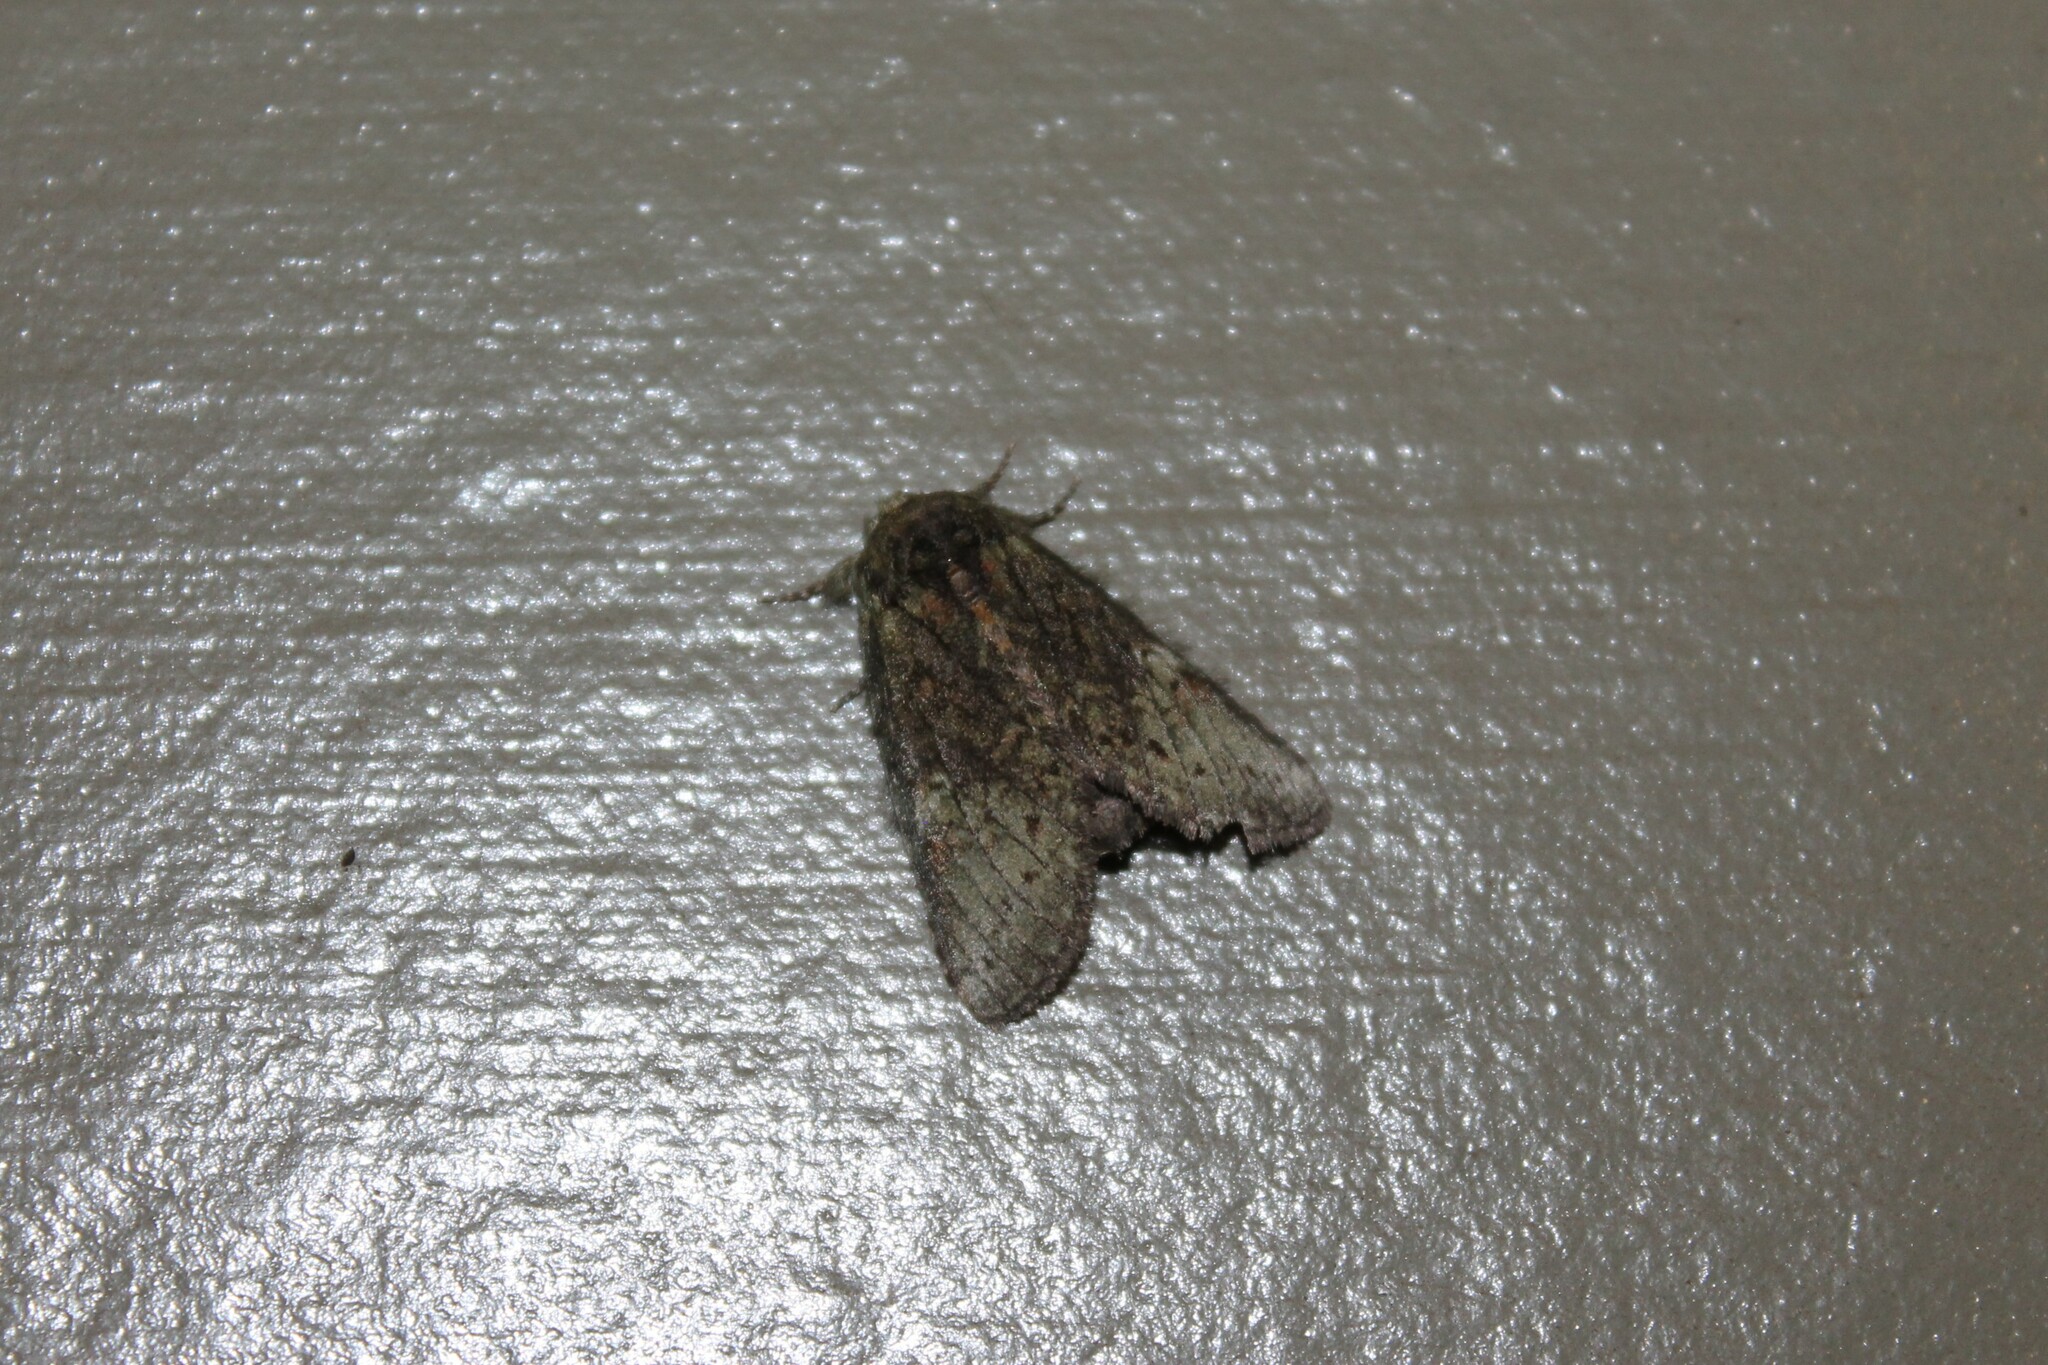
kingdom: Animalia
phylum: Arthropoda
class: Insecta
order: Lepidoptera
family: Notodontidae
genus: Disphragis
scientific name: Disphragis Cecrita guttivitta
